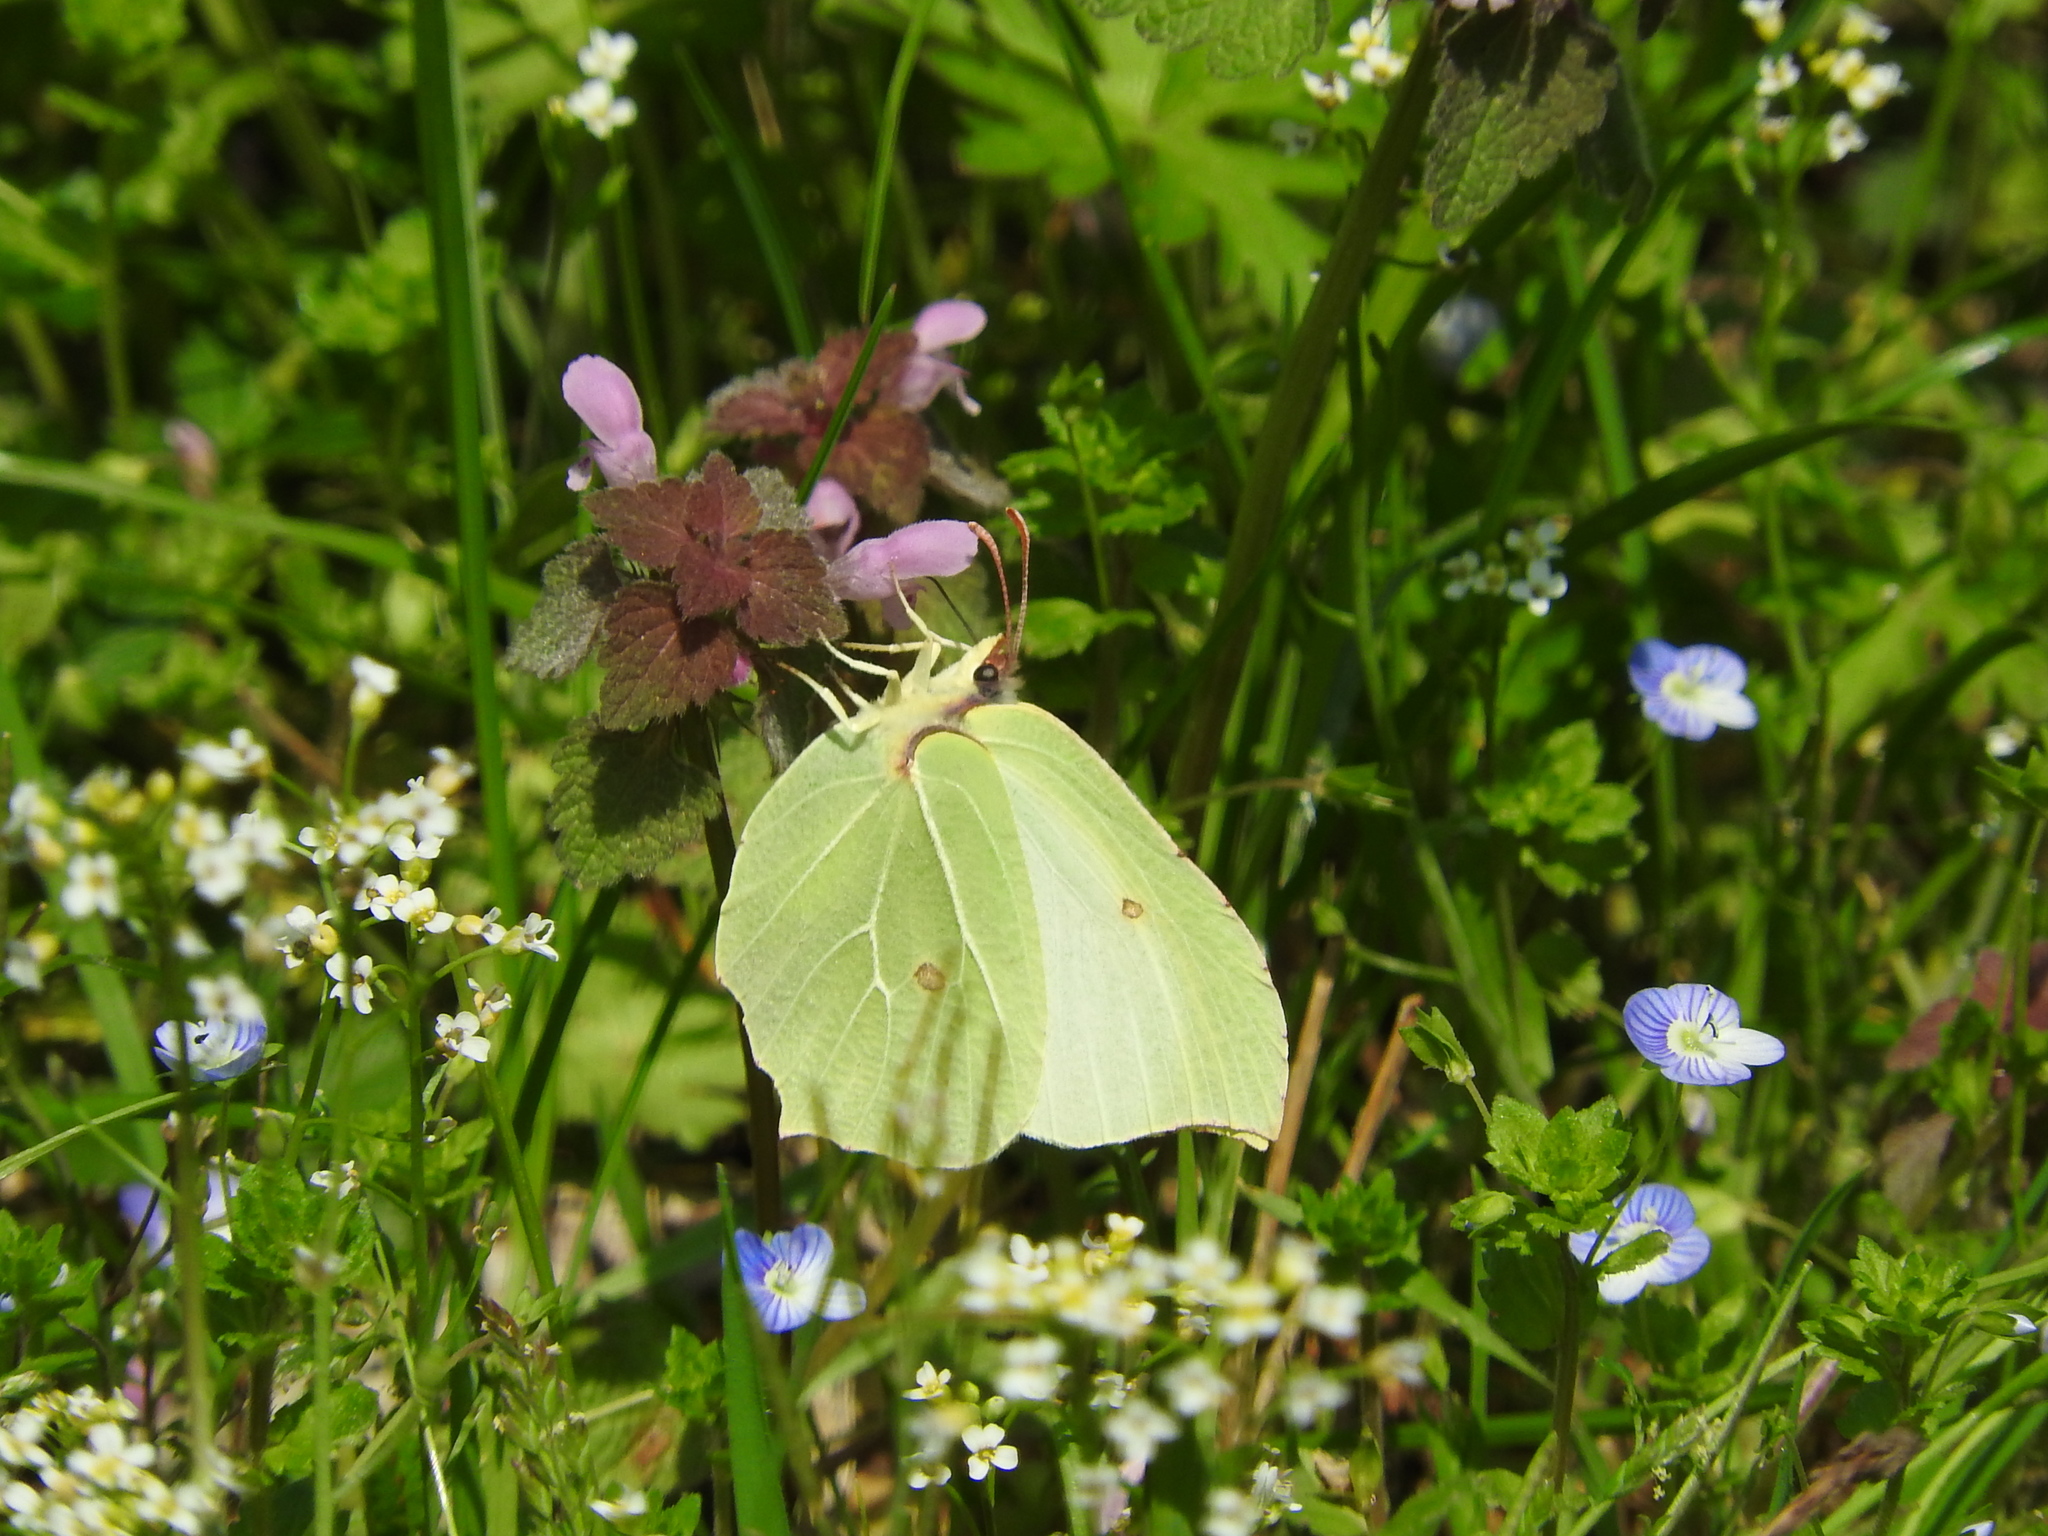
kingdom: Animalia
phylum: Arthropoda
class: Insecta
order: Lepidoptera
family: Pieridae
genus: Gonepteryx
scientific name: Gonepteryx rhamni
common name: Brimstone
